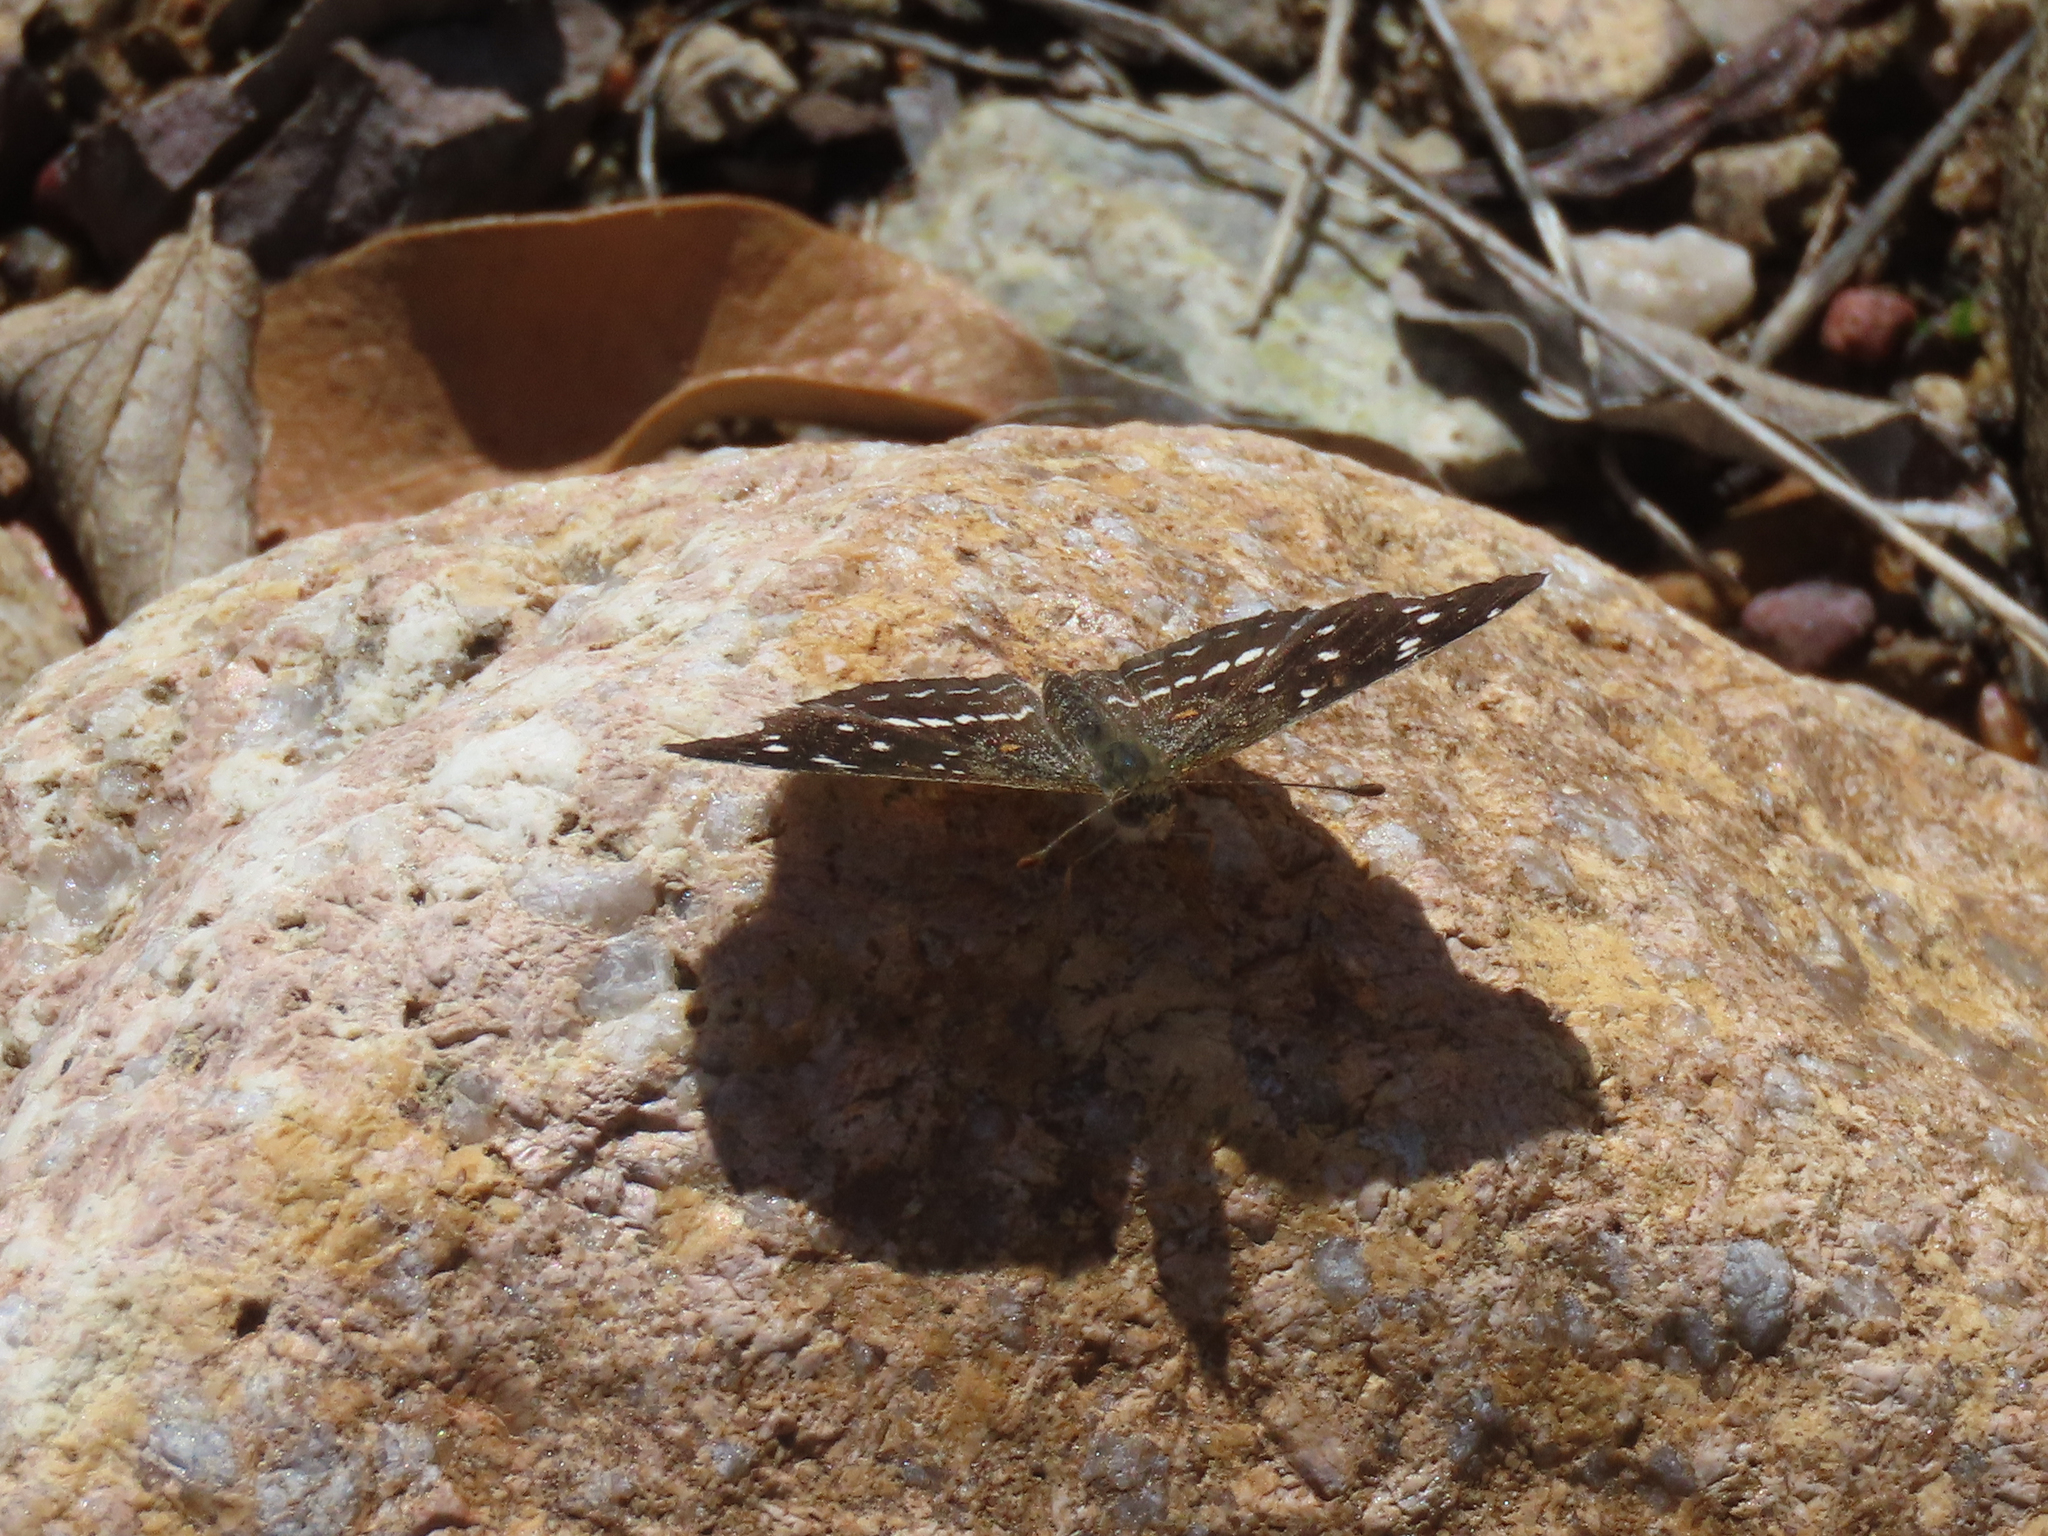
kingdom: Animalia
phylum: Arthropoda
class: Insecta
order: Lepidoptera
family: Nymphalidae
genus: Anthanassa
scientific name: Anthanassa texana
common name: Texan crescent
